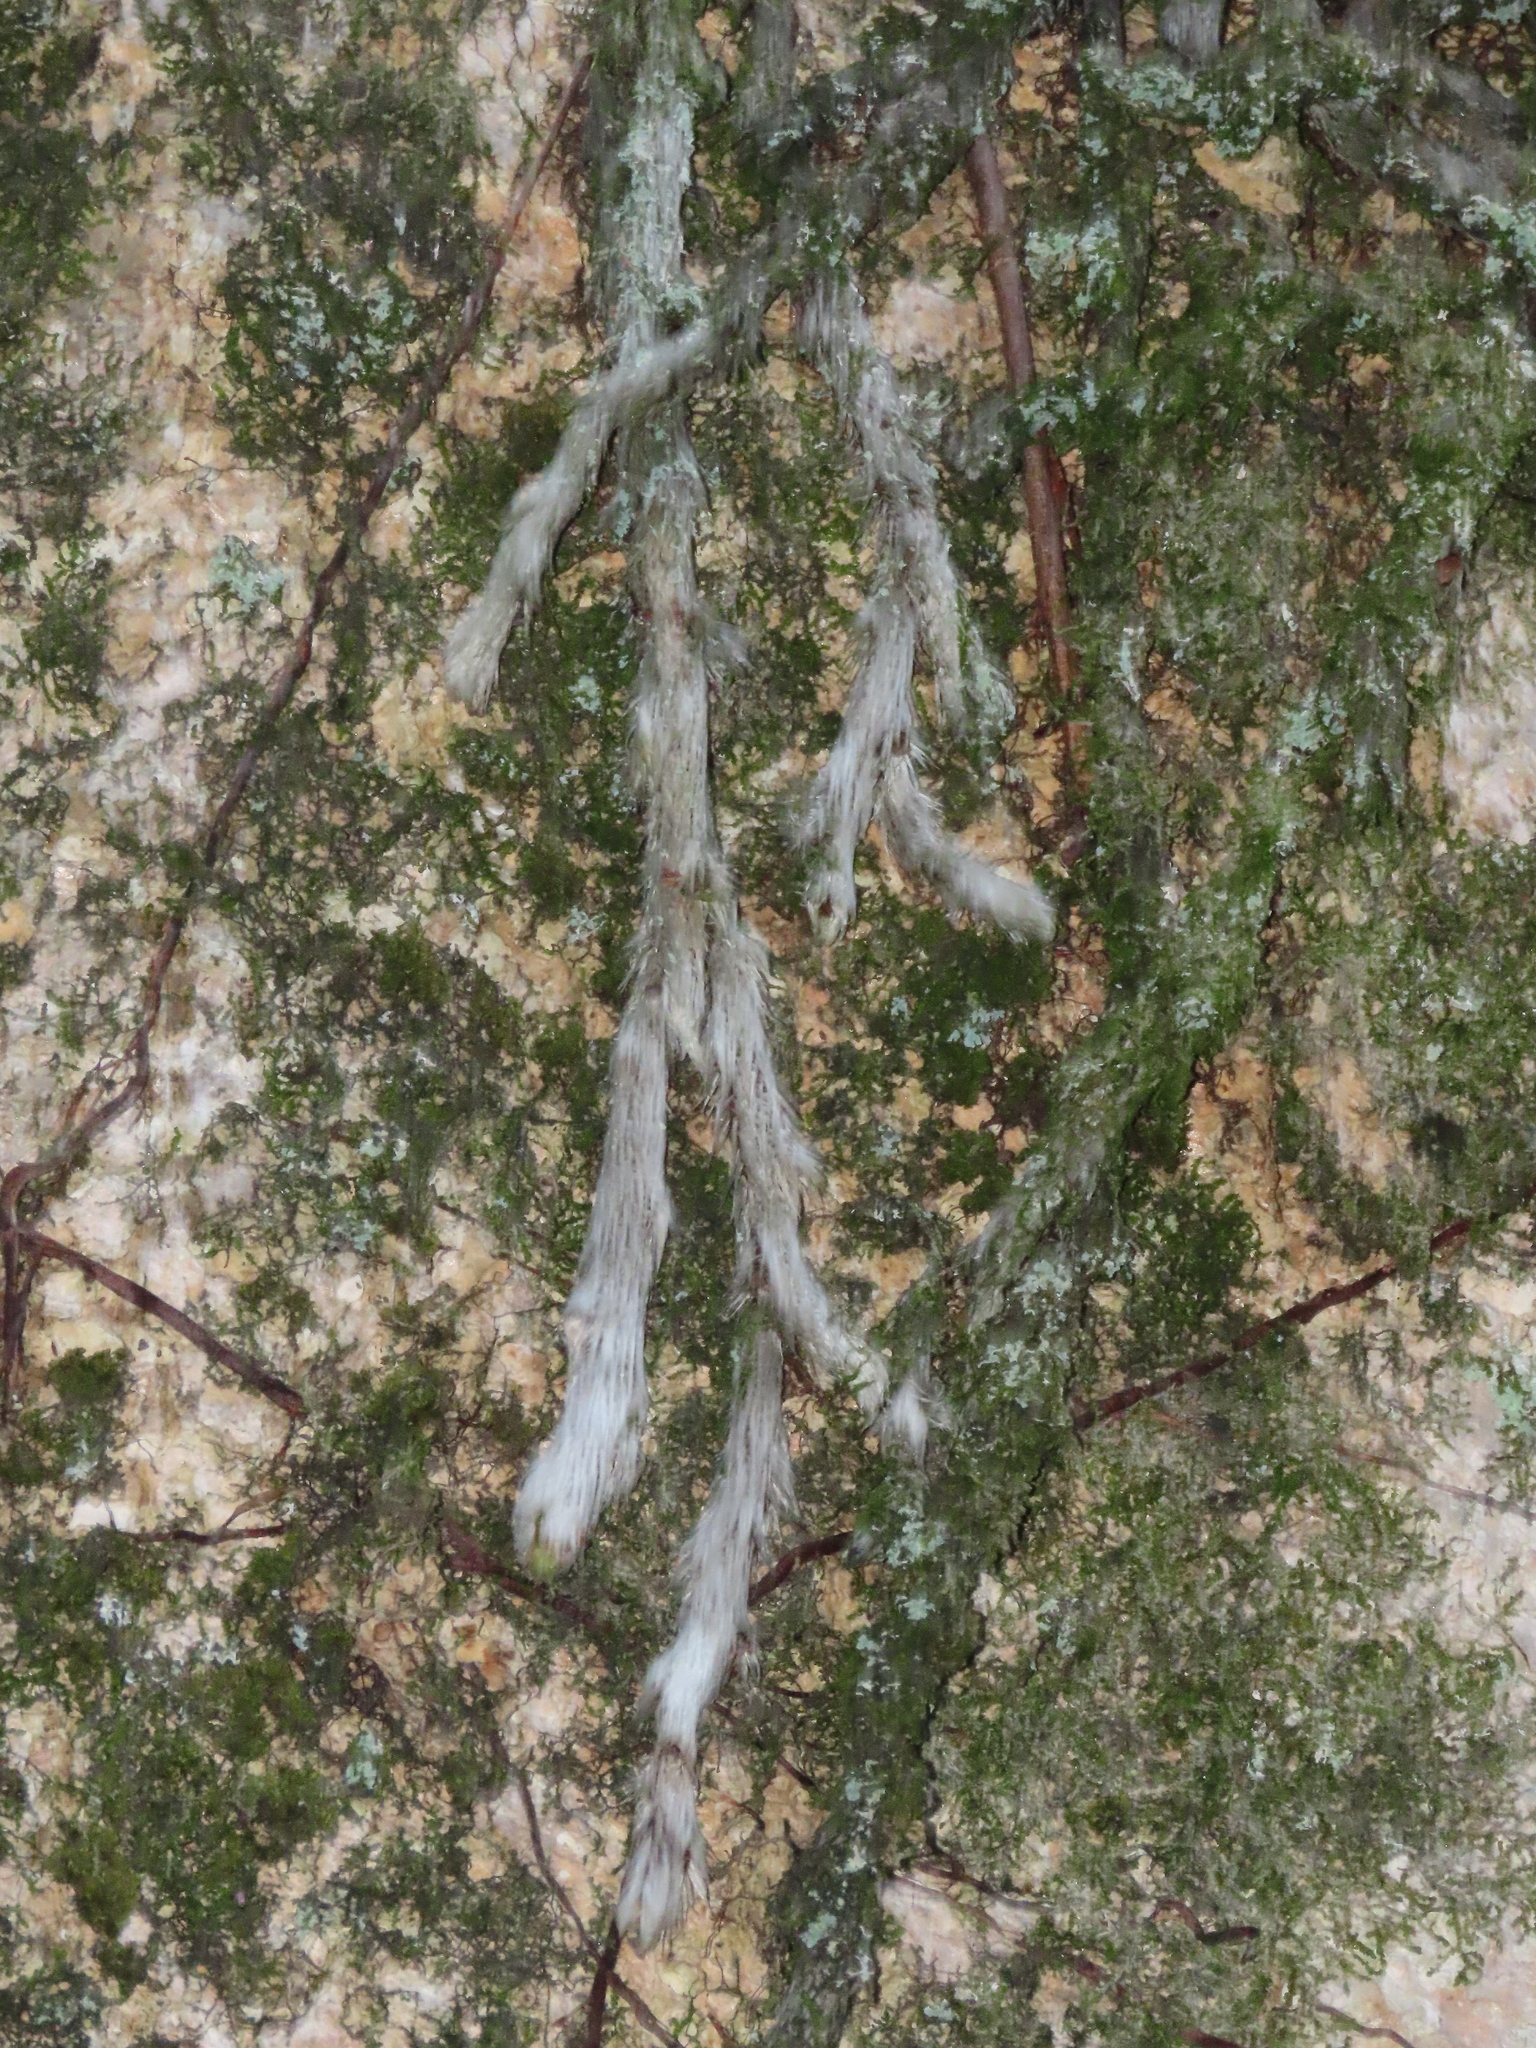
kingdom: Plantae
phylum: Tracheophyta
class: Polypodiopsida
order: Polypodiales
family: Davalliaceae
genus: Davallia
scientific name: Davallia griffithiana
